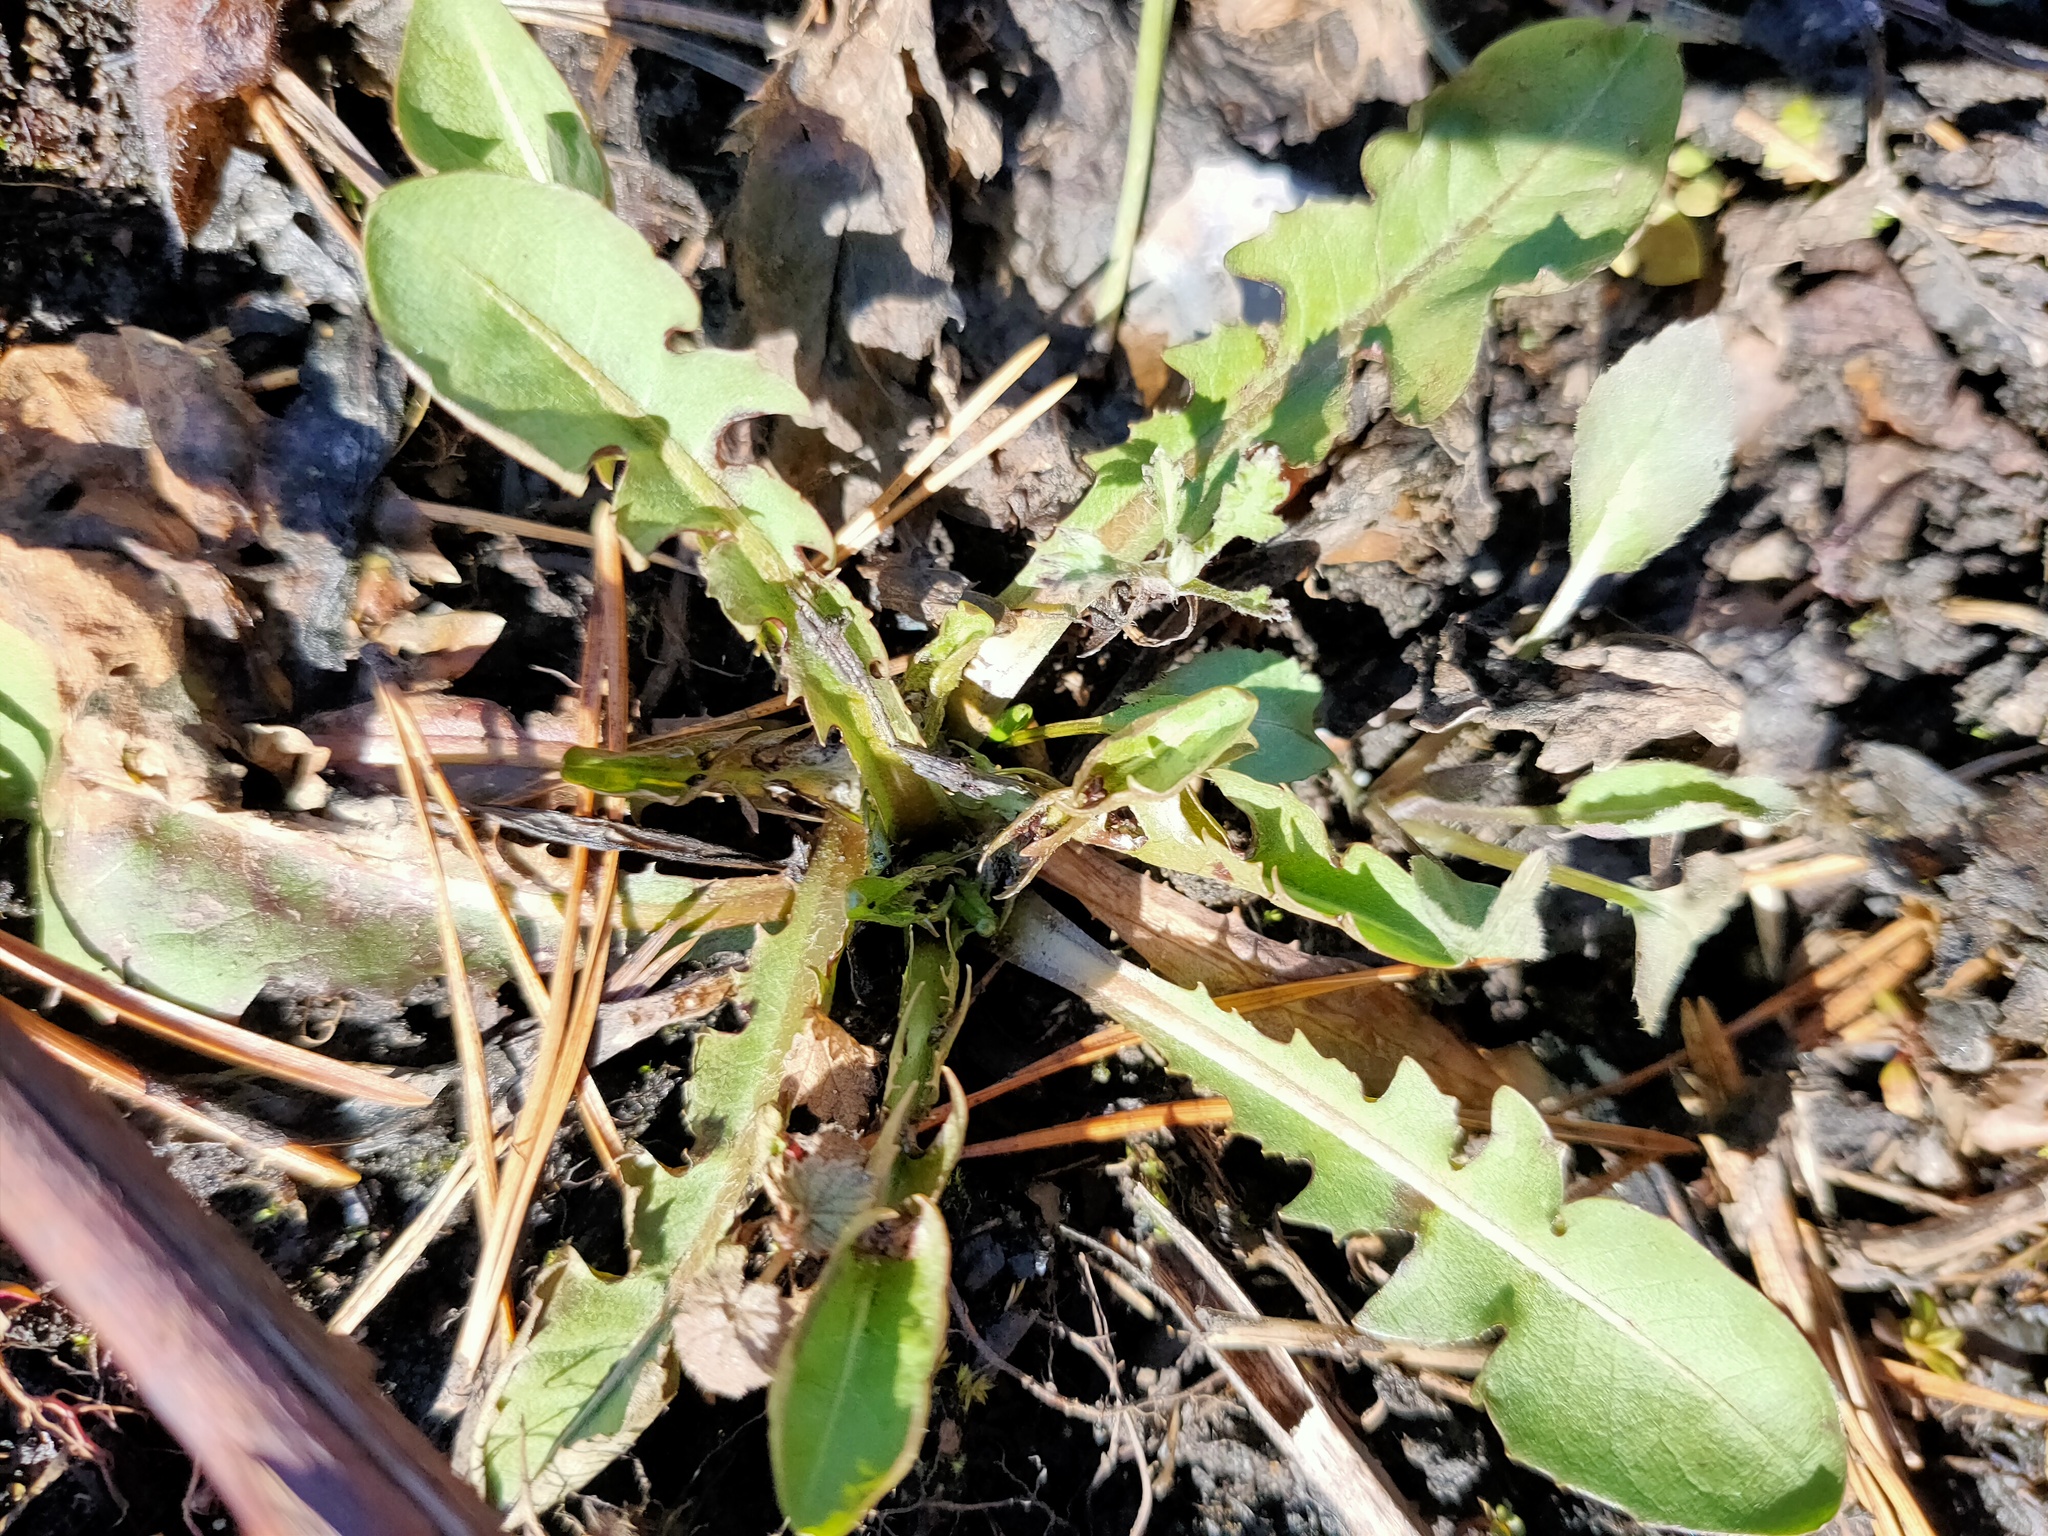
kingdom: Plantae
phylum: Tracheophyta
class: Magnoliopsida
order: Asterales
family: Asteraceae
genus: Taraxacum
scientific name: Taraxacum officinale
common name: Common dandelion
